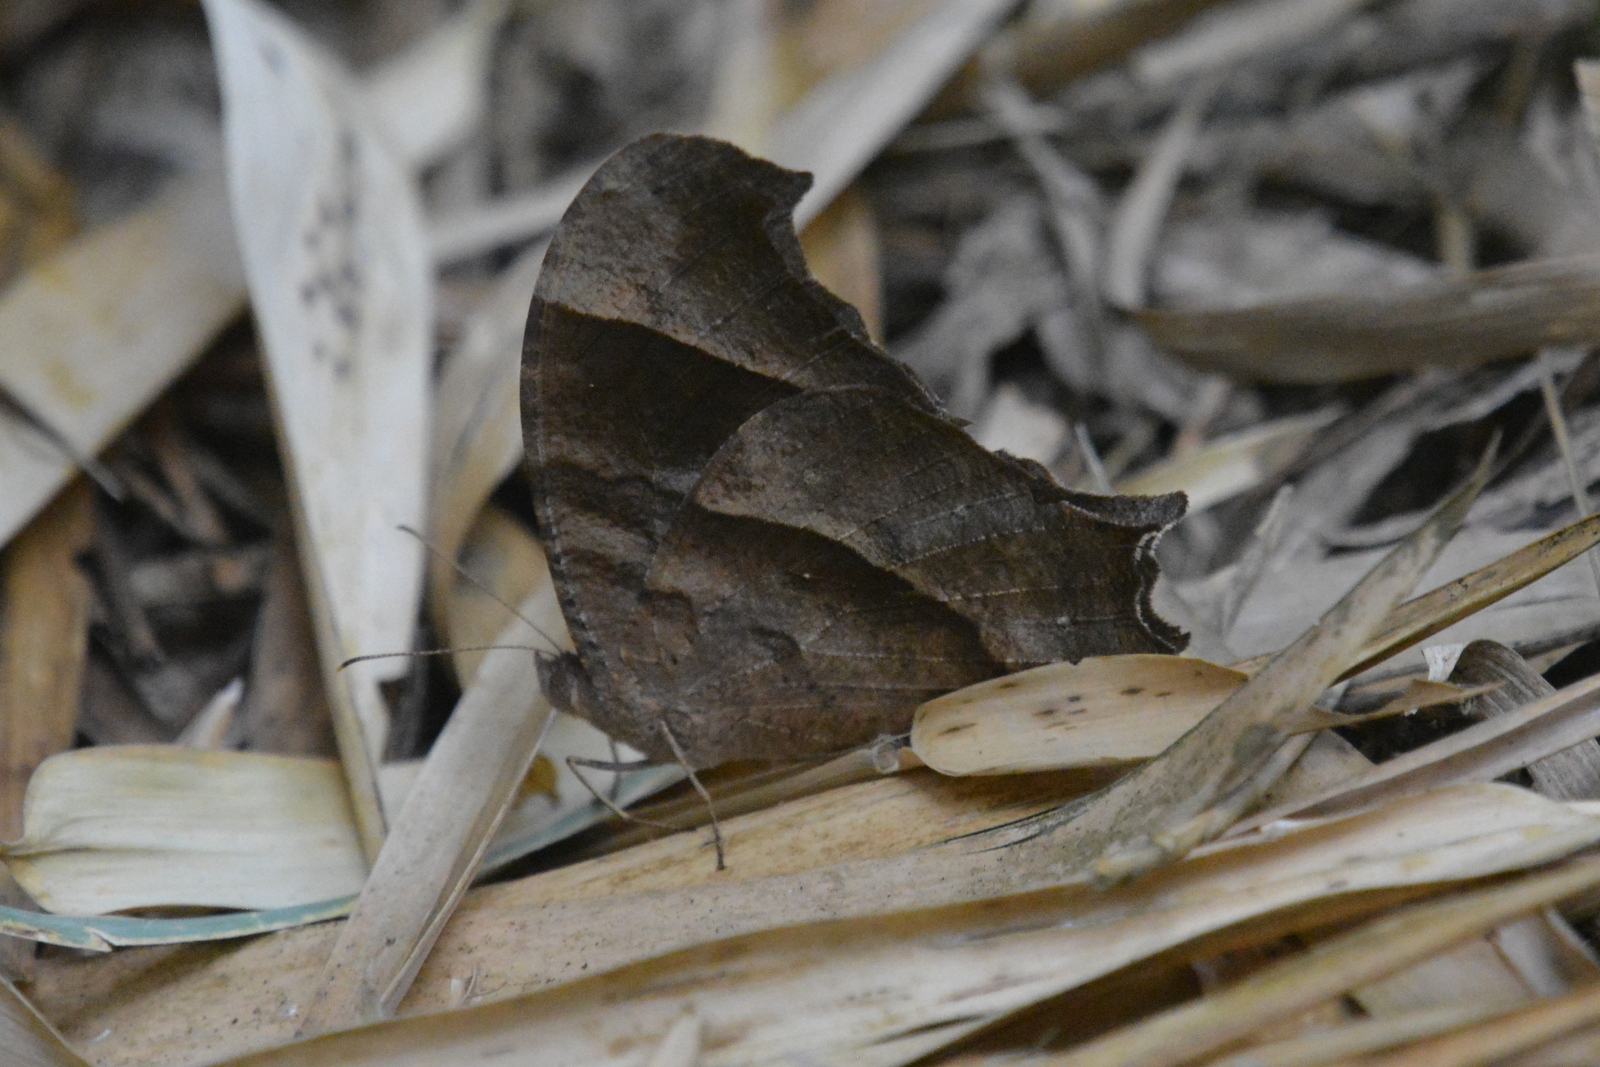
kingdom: Animalia
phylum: Arthropoda
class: Insecta
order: Lepidoptera
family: Nymphalidae
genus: Melanitis
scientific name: Melanitis zitenius
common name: Great evening brown
